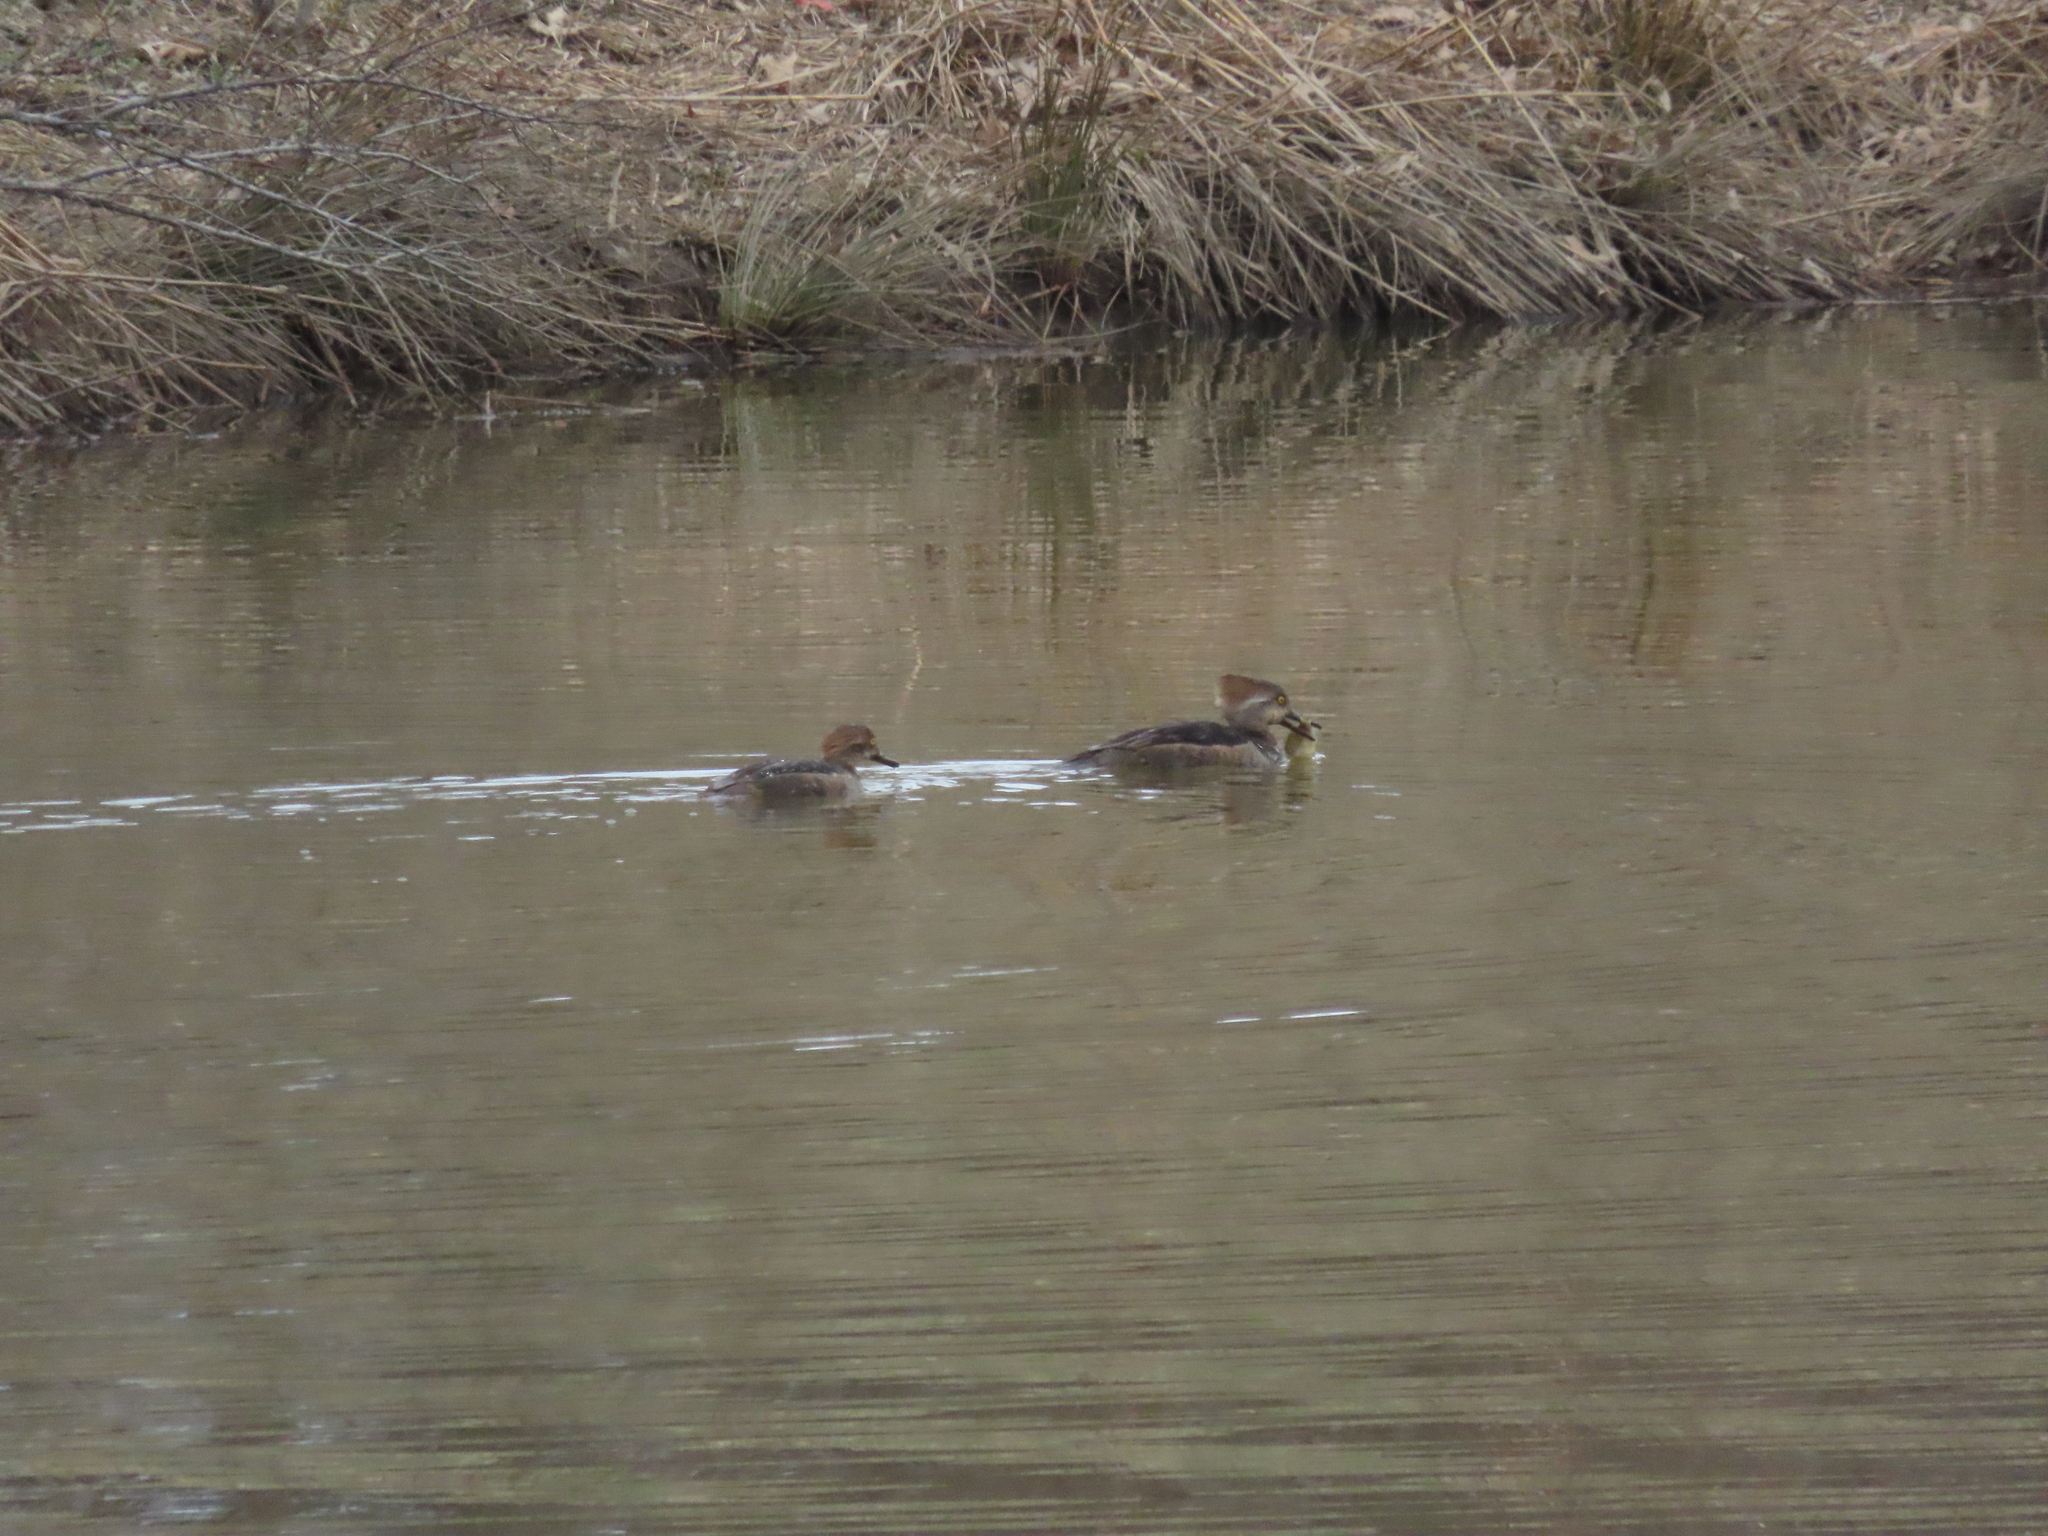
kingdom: Animalia
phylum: Chordata
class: Aves
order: Anseriformes
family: Anatidae
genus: Lophodytes
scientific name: Lophodytes cucullatus
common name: Hooded merganser
